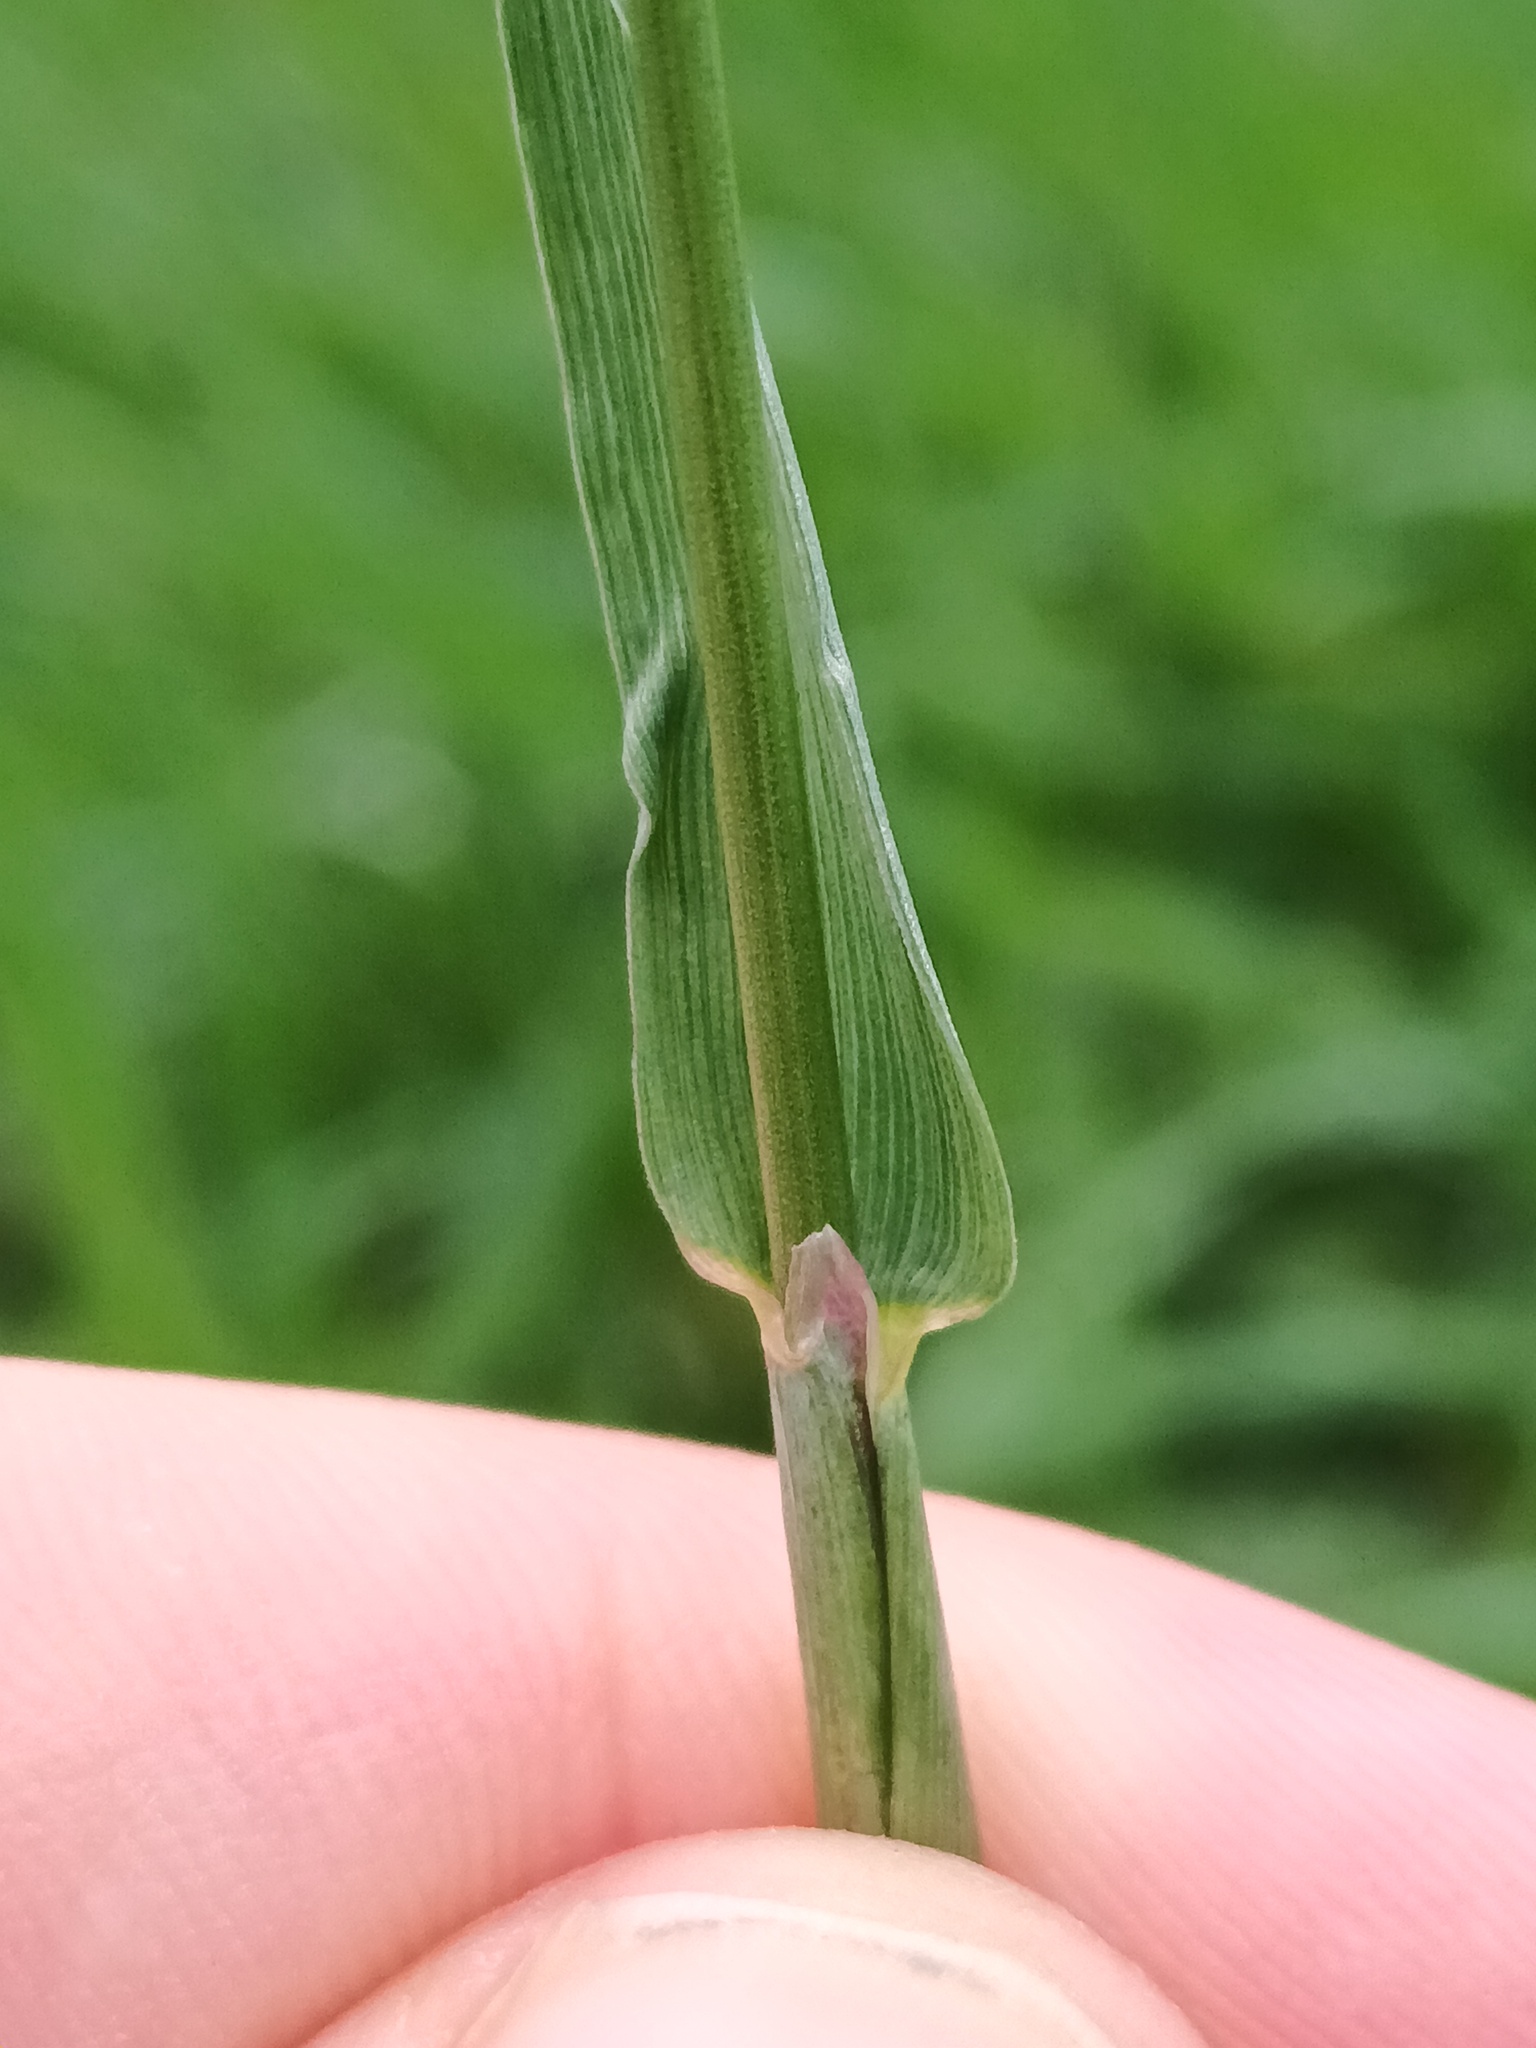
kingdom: Plantae
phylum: Tracheophyta
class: Liliopsida
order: Poales
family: Poaceae
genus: Alopecurus
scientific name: Alopecurus pratensis
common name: Meadow foxtail
